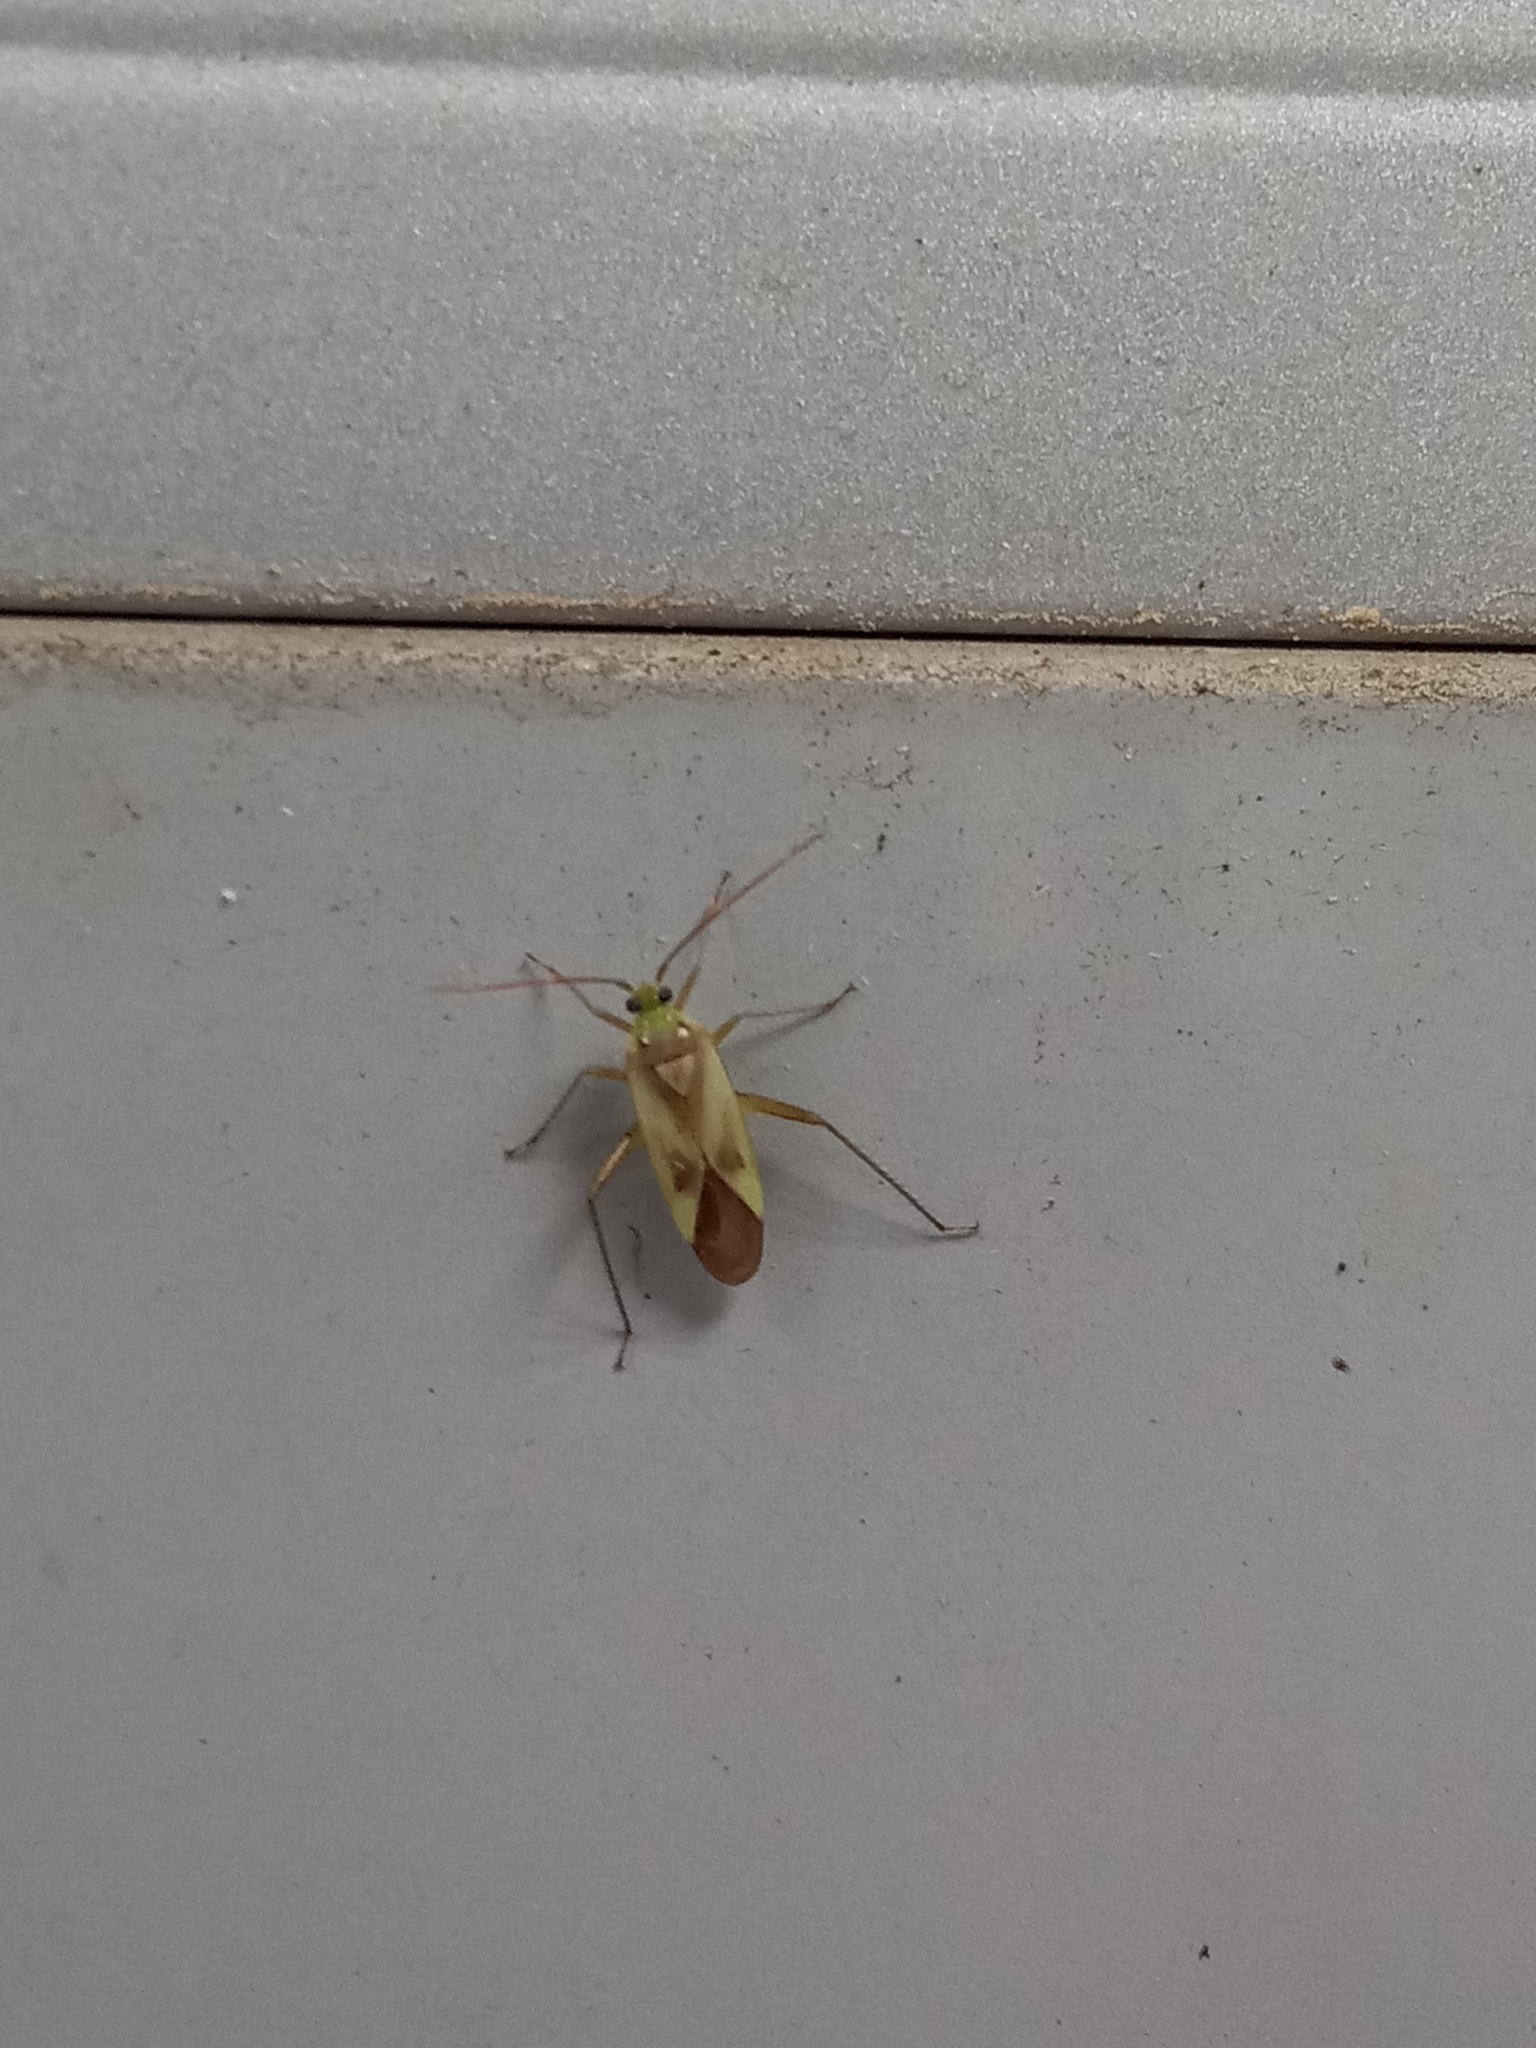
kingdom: Animalia
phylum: Arthropoda
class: Insecta
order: Hemiptera
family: Miridae
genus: Adelphocoris
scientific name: Adelphocoris lineolatus
